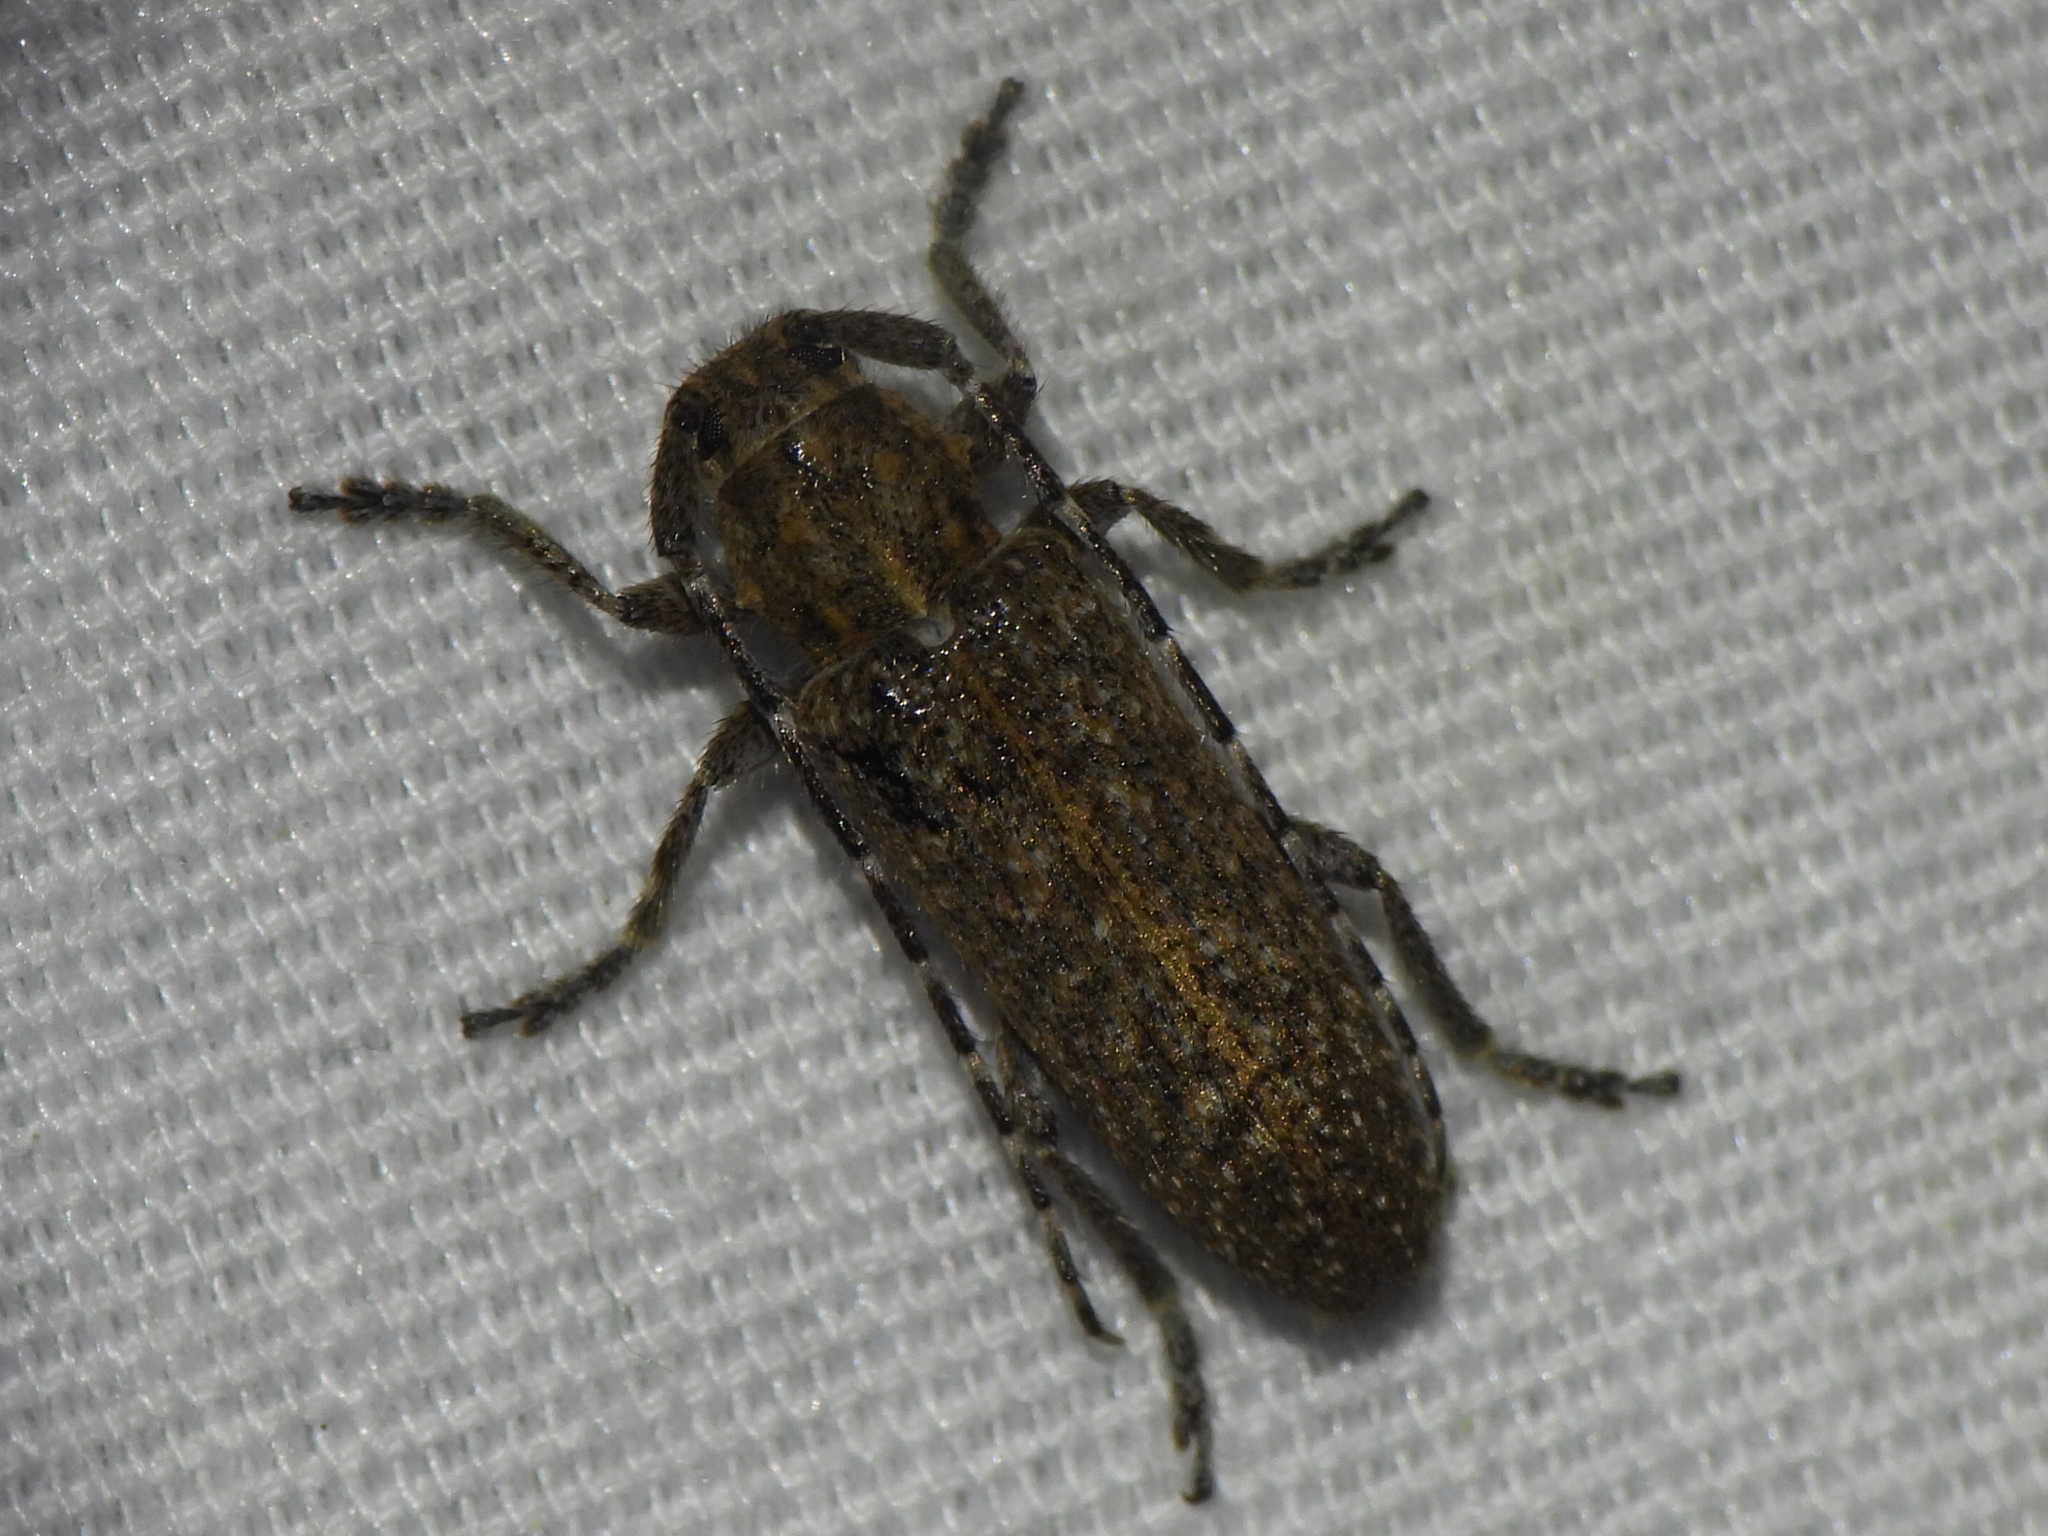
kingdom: Animalia
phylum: Arthropoda
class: Insecta
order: Coleoptera
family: Cerambycidae
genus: Ataxia
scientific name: Ataxia hubbardi
